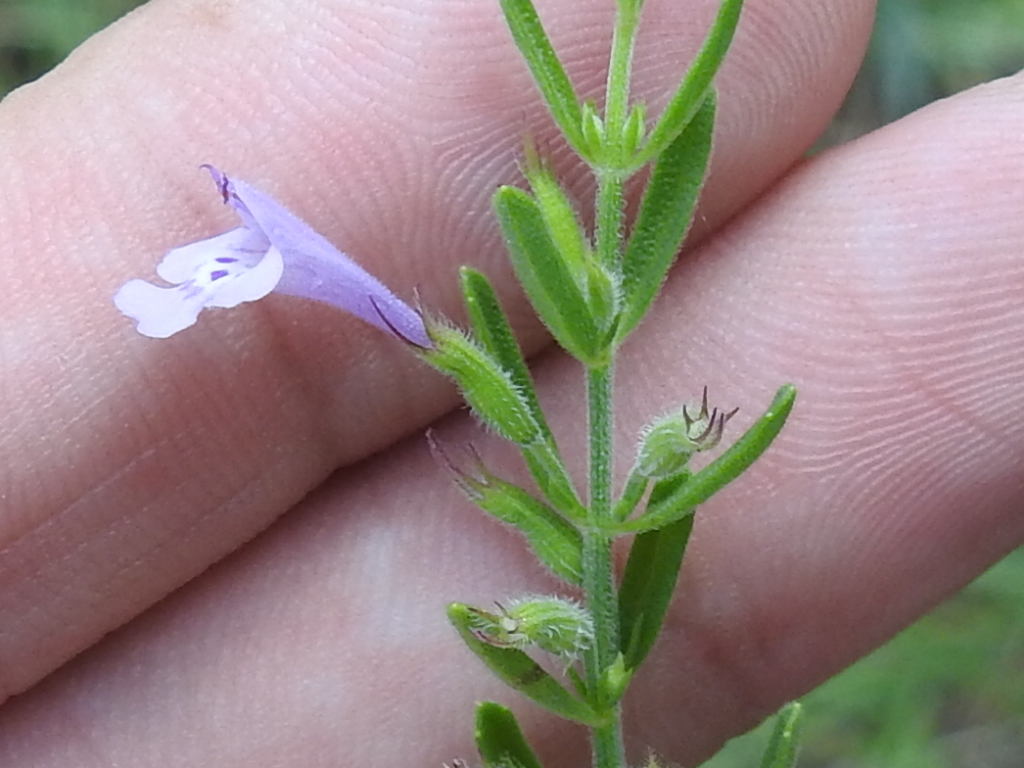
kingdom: Plantae
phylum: Tracheophyta
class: Magnoliopsida
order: Lamiales
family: Lamiaceae
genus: Hedeoma
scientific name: Hedeoma reverchonii
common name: Reverchon's false penny-royal
